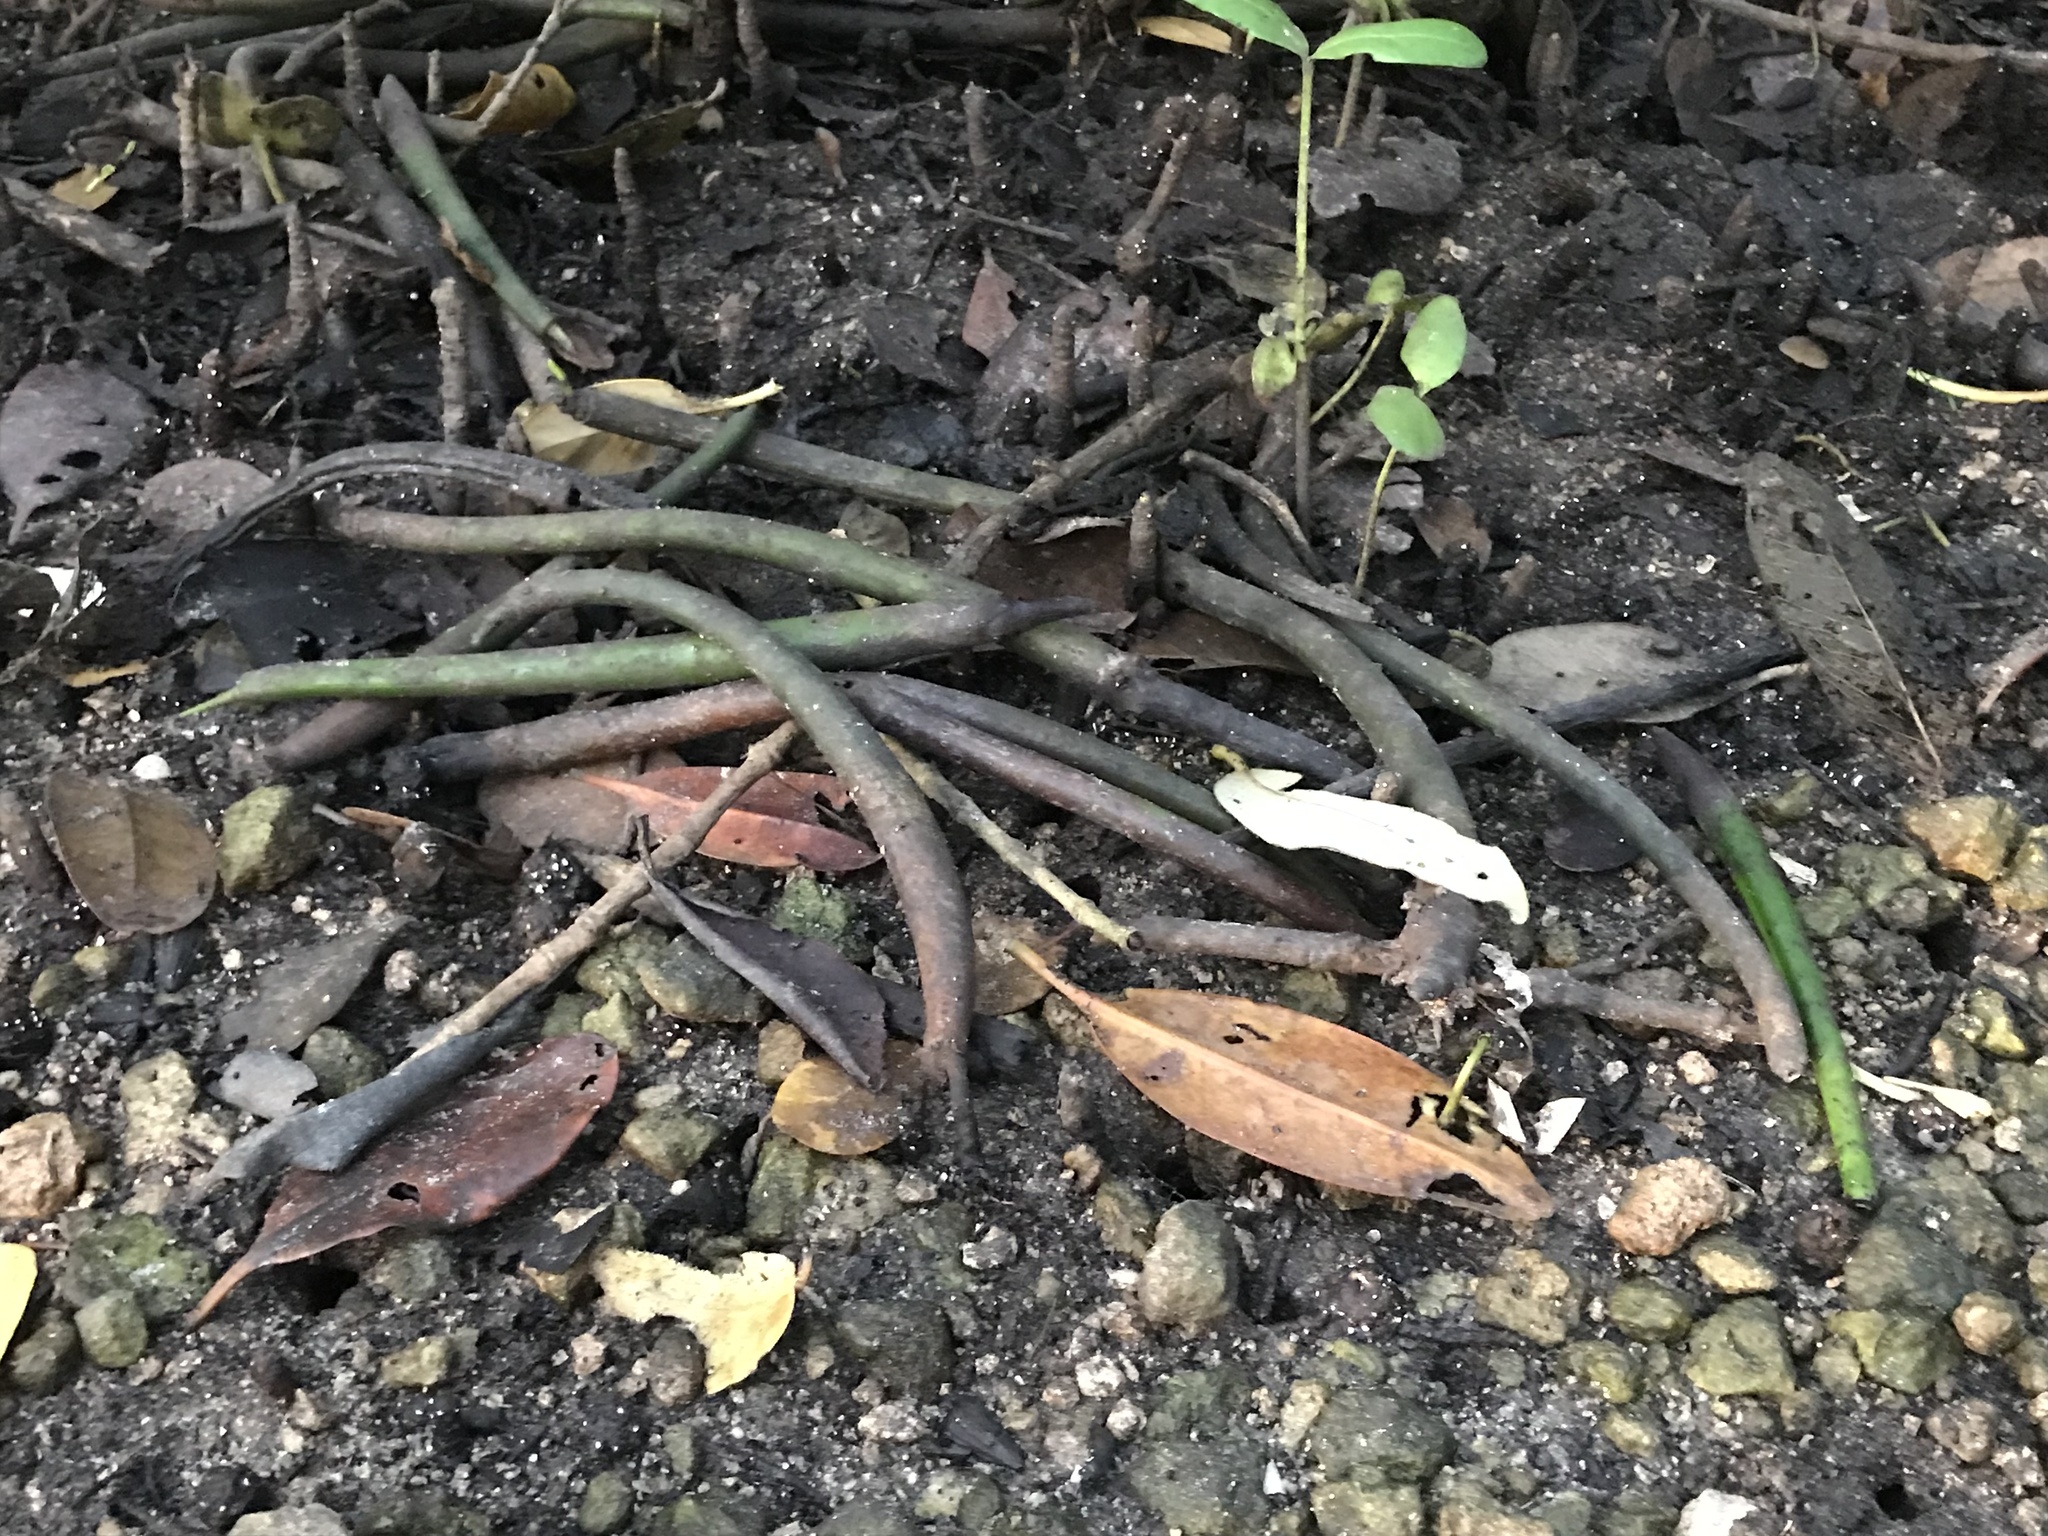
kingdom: Plantae
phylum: Tracheophyta
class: Magnoliopsida
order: Malpighiales
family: Rhizophoraceae
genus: Rhizophora
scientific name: Rhizophora mangle
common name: Red mangrove
